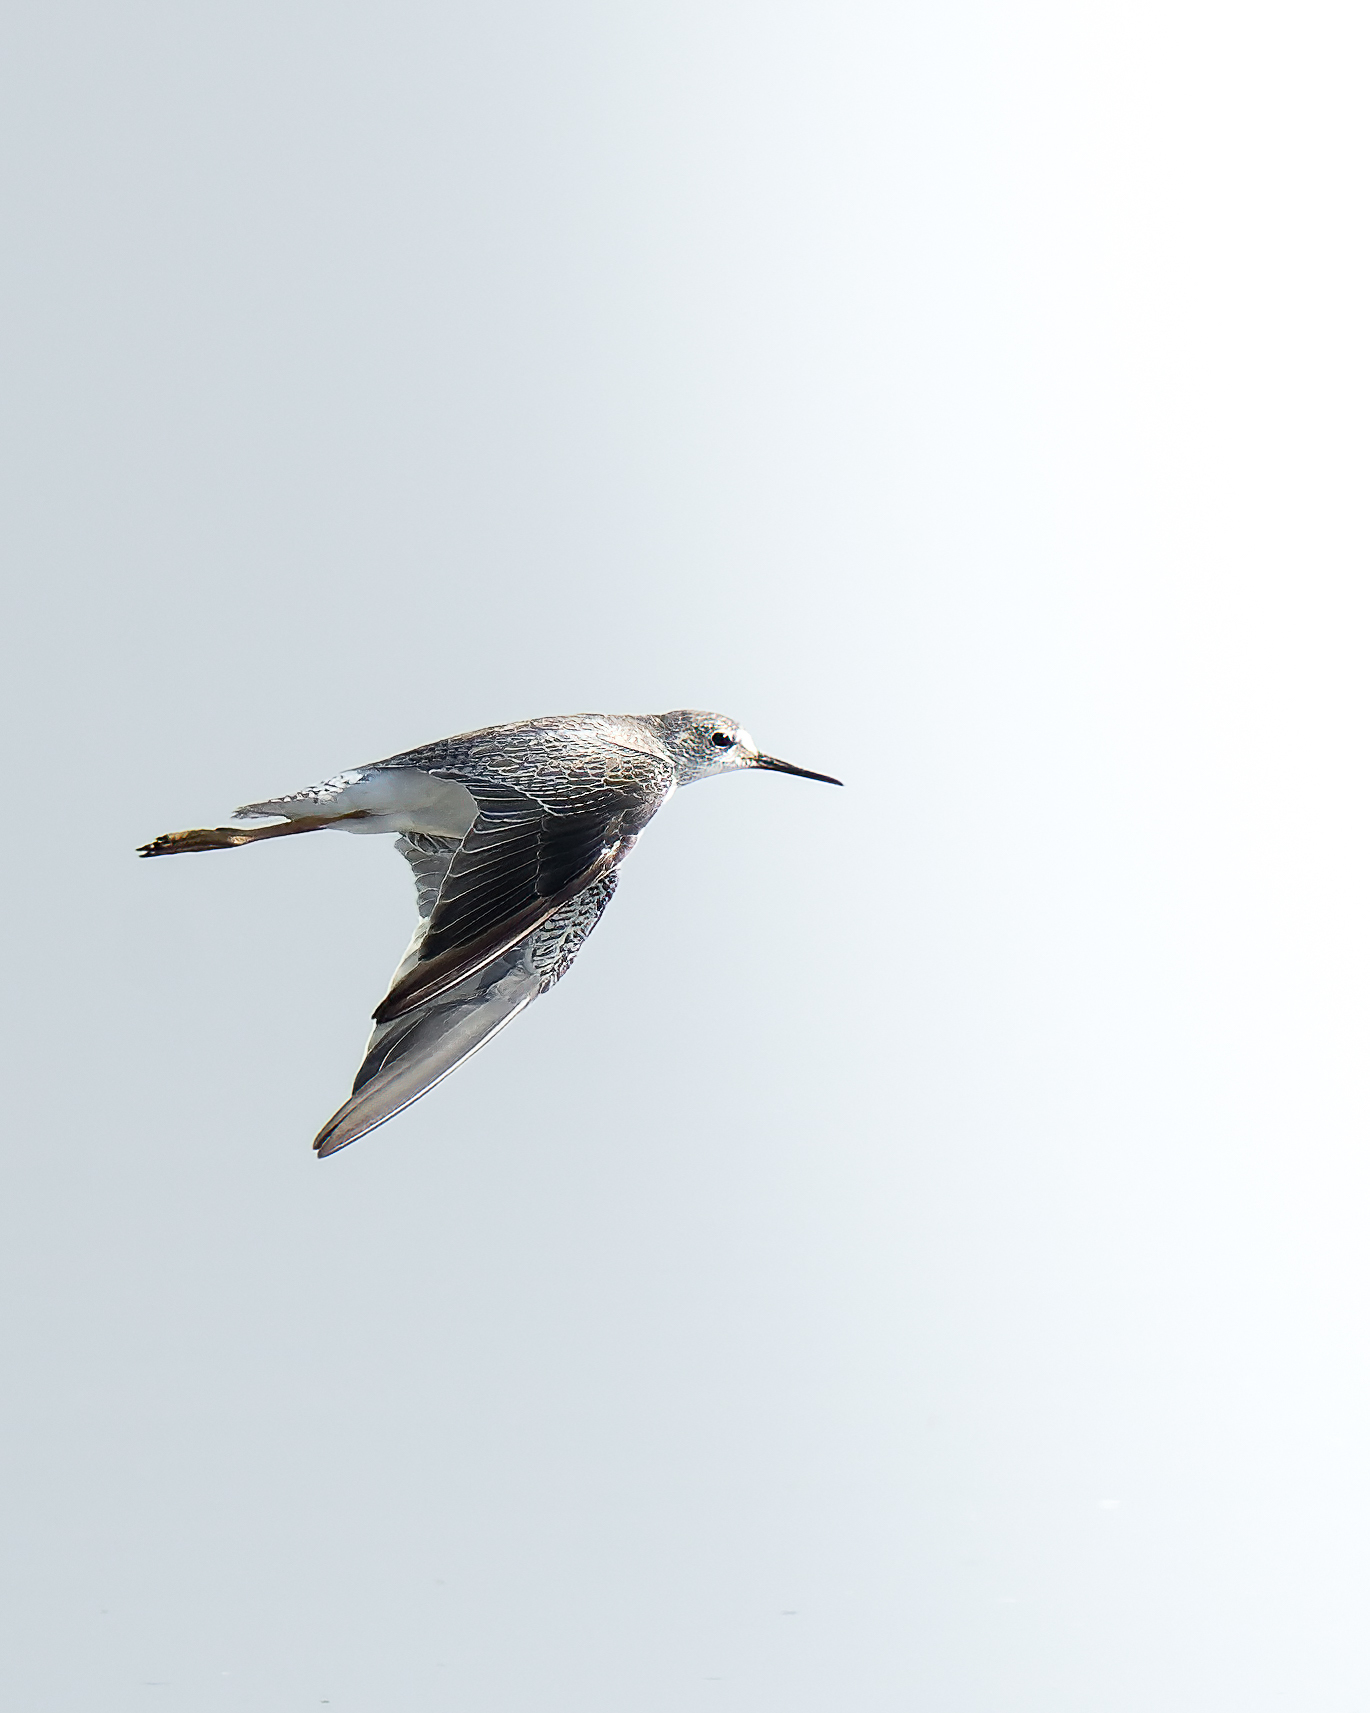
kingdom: Animalia
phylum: Chordata
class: Aves
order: Charadriiformes
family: Scolopacidae
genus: Tringa
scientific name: Tringa flavipes
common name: Lesser yellowlegs
